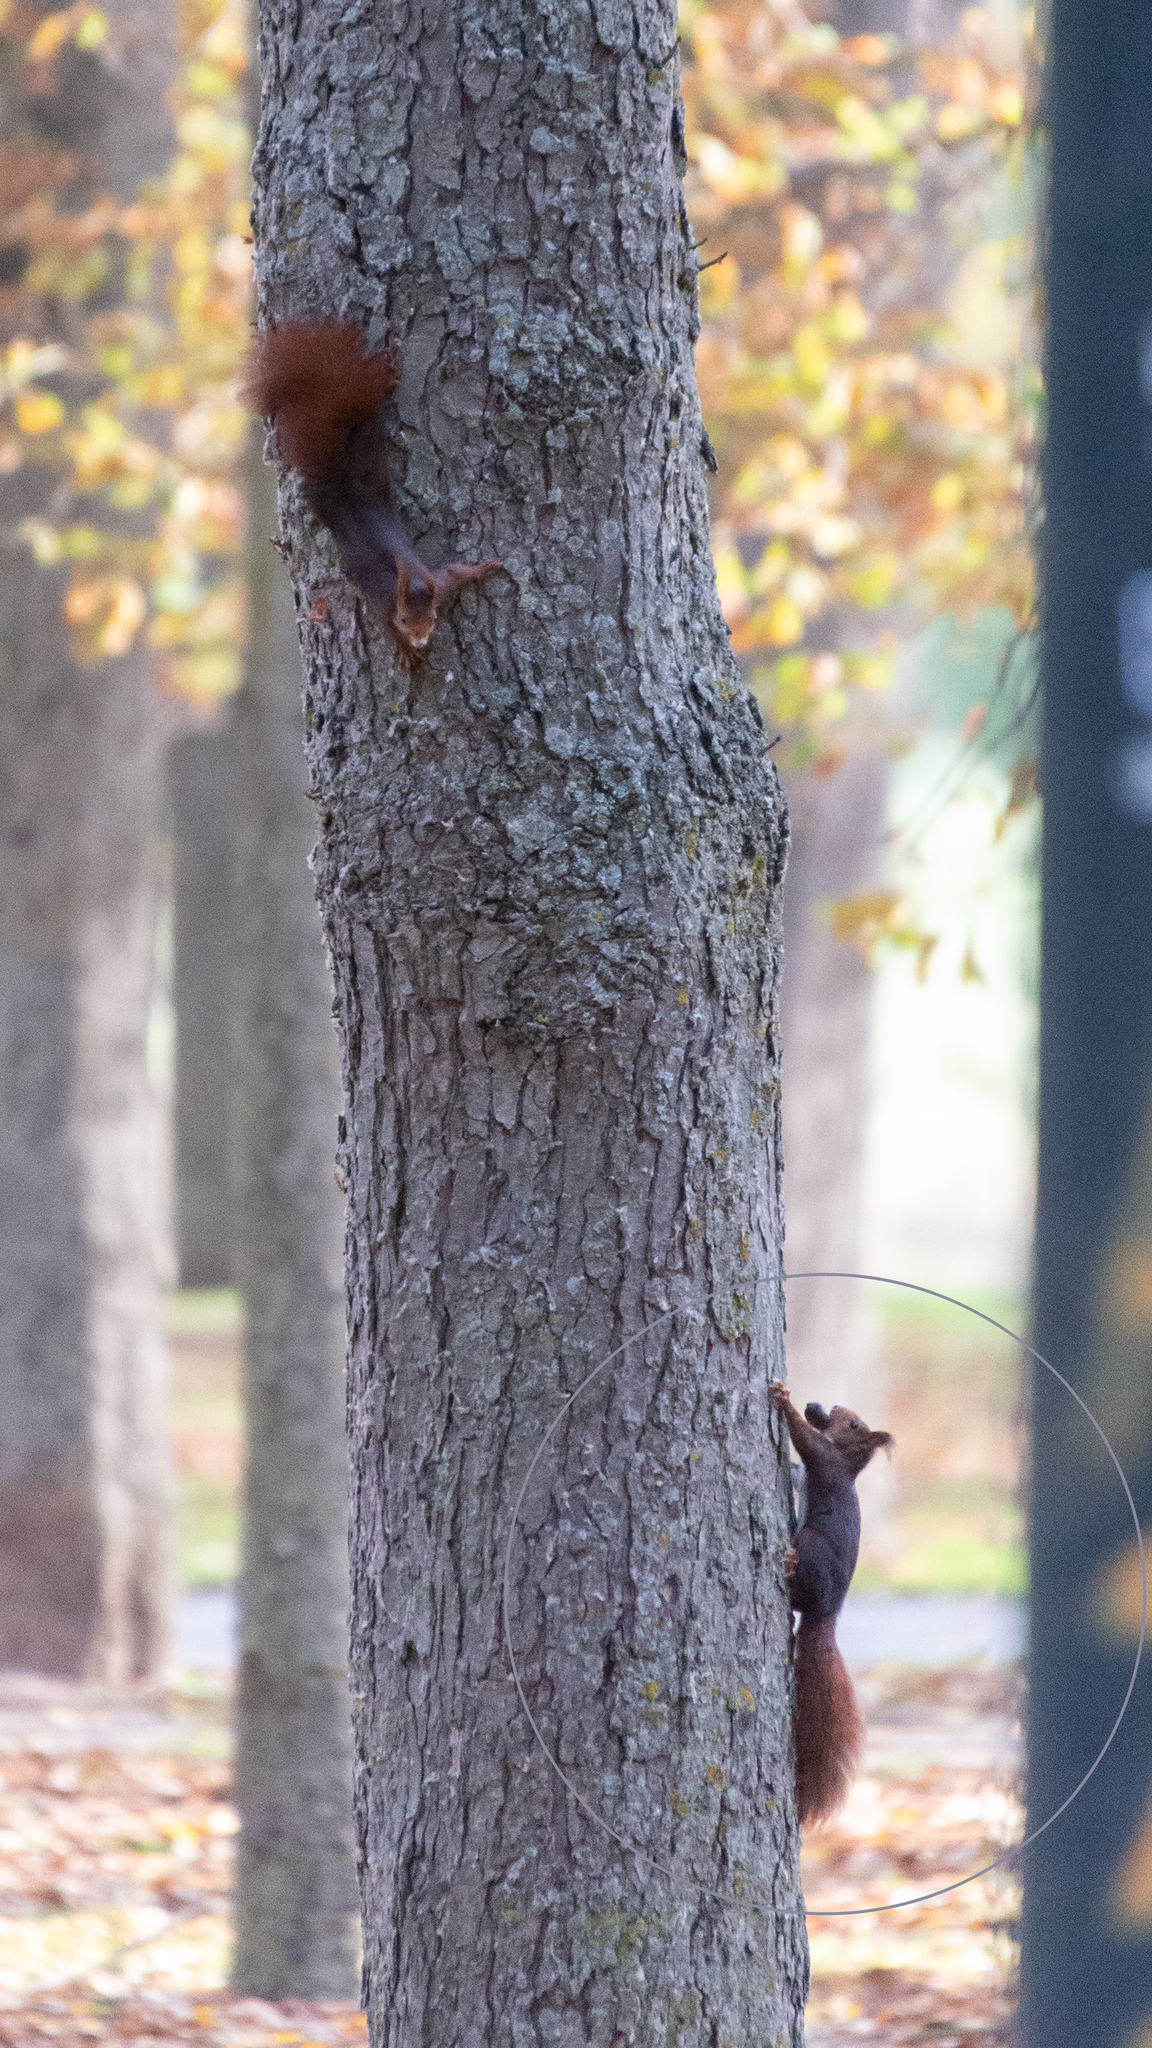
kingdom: Animalia
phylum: Chordata
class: Mammalia
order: Rodentia
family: Sciuridae
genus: Sciurus
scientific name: Sciurus vulgaris
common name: Eurasian red squirrel
